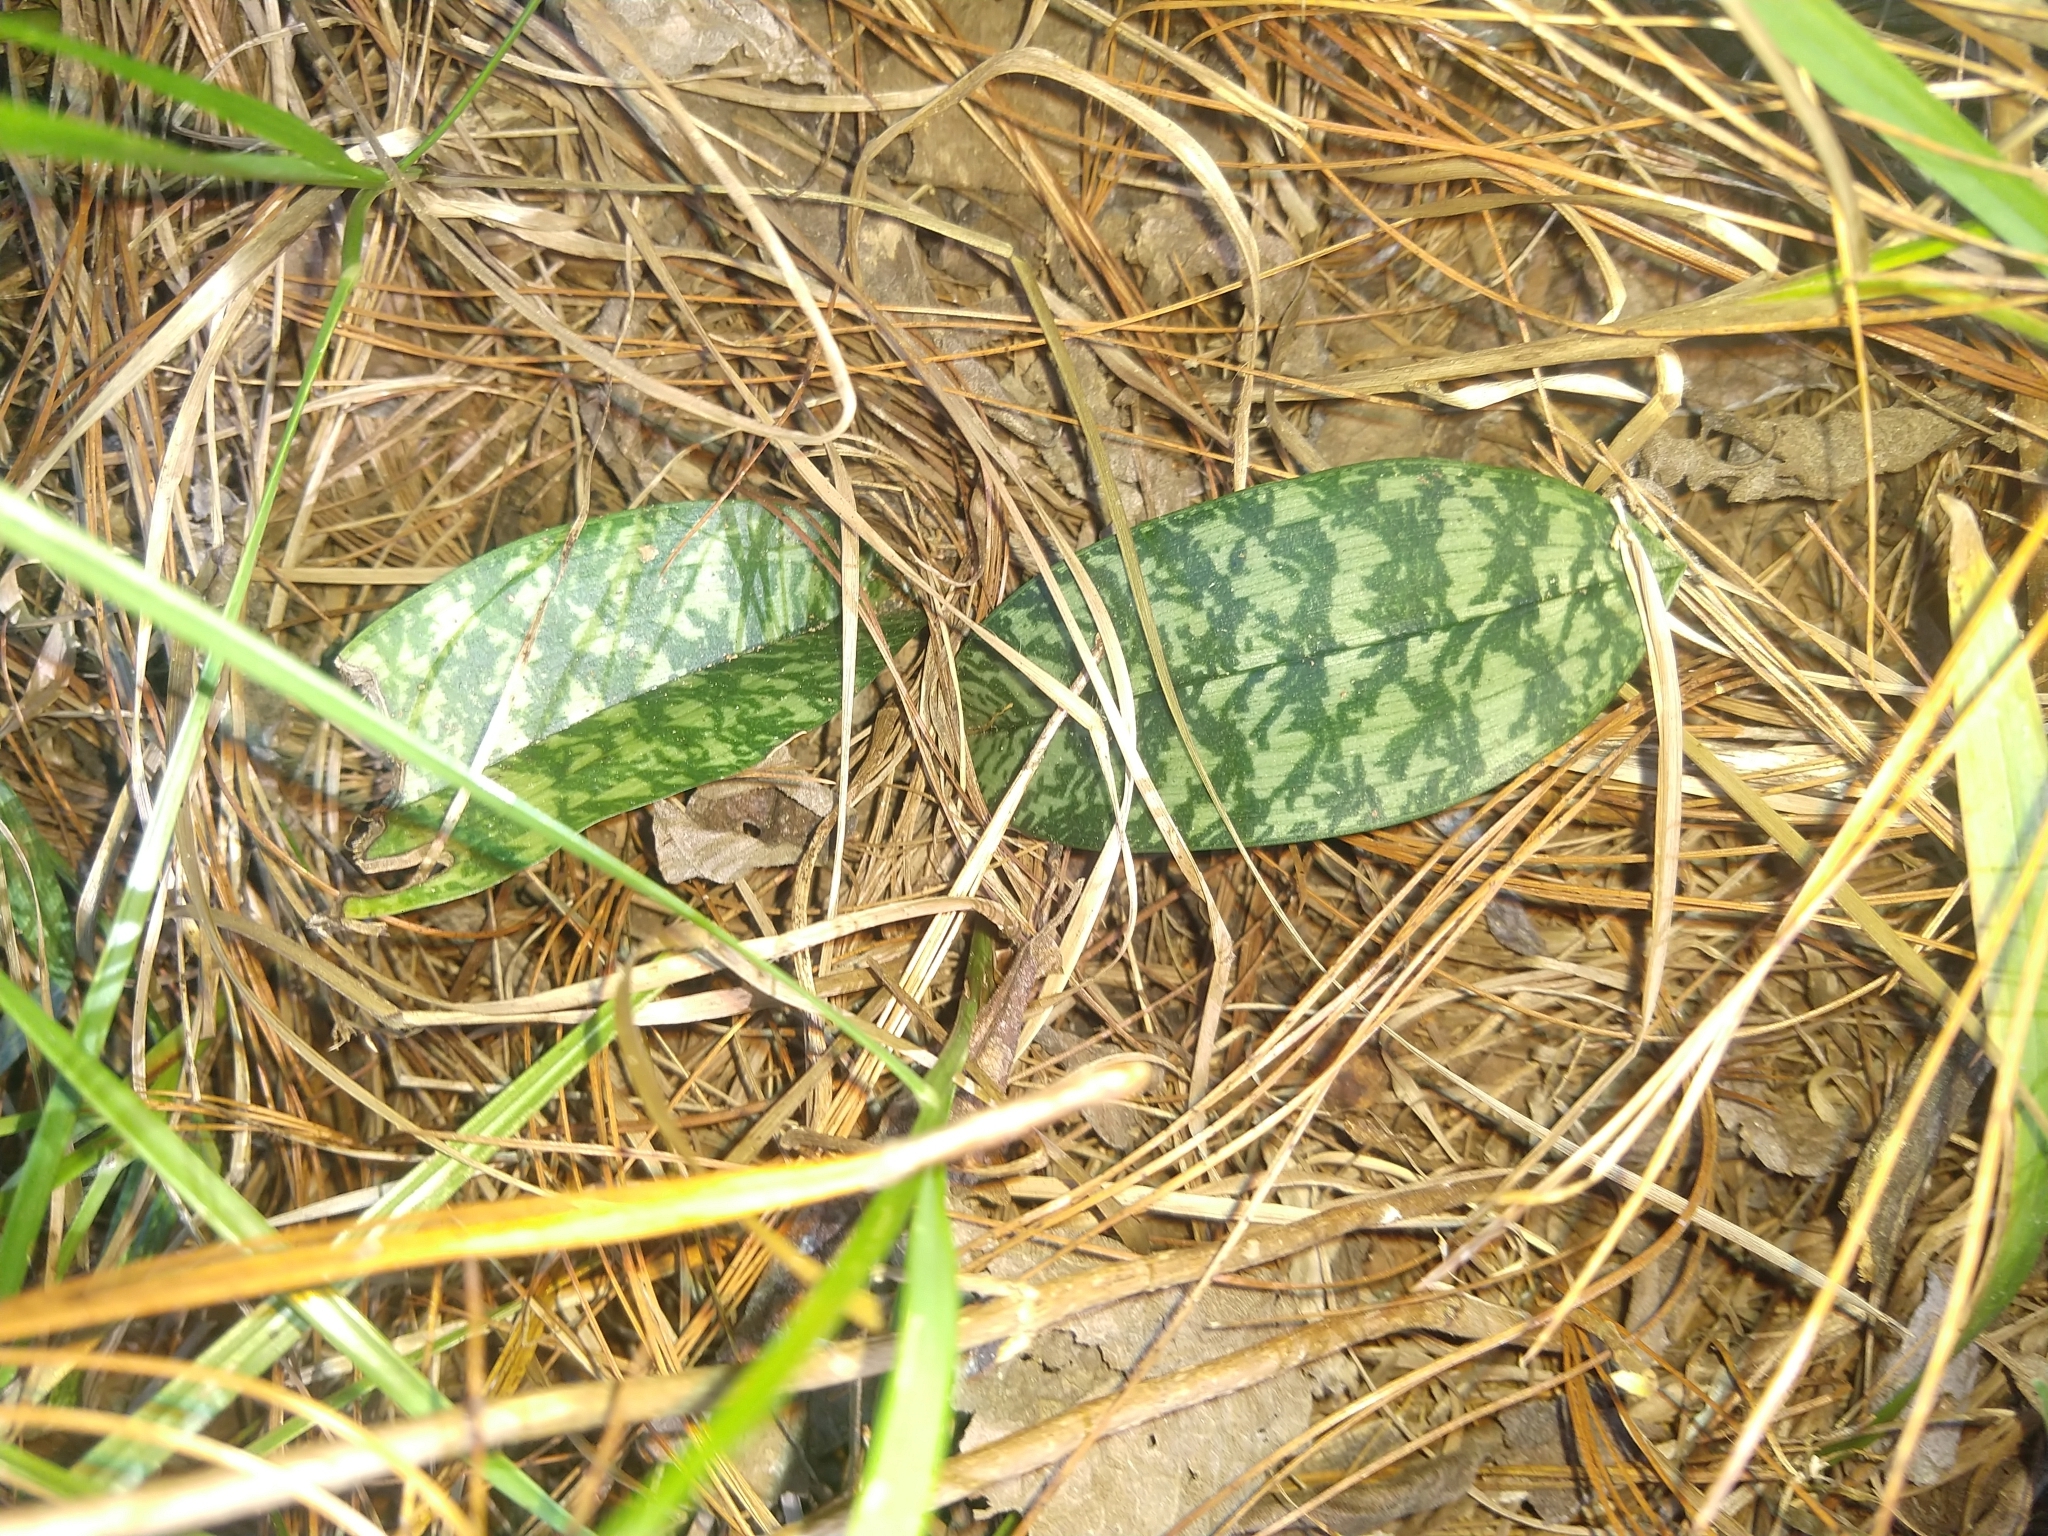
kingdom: Plantae
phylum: Tracheophyta
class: Liliopsida
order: Asparagales
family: Orchidaceae
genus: Eulophia
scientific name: Eulophia maculata
